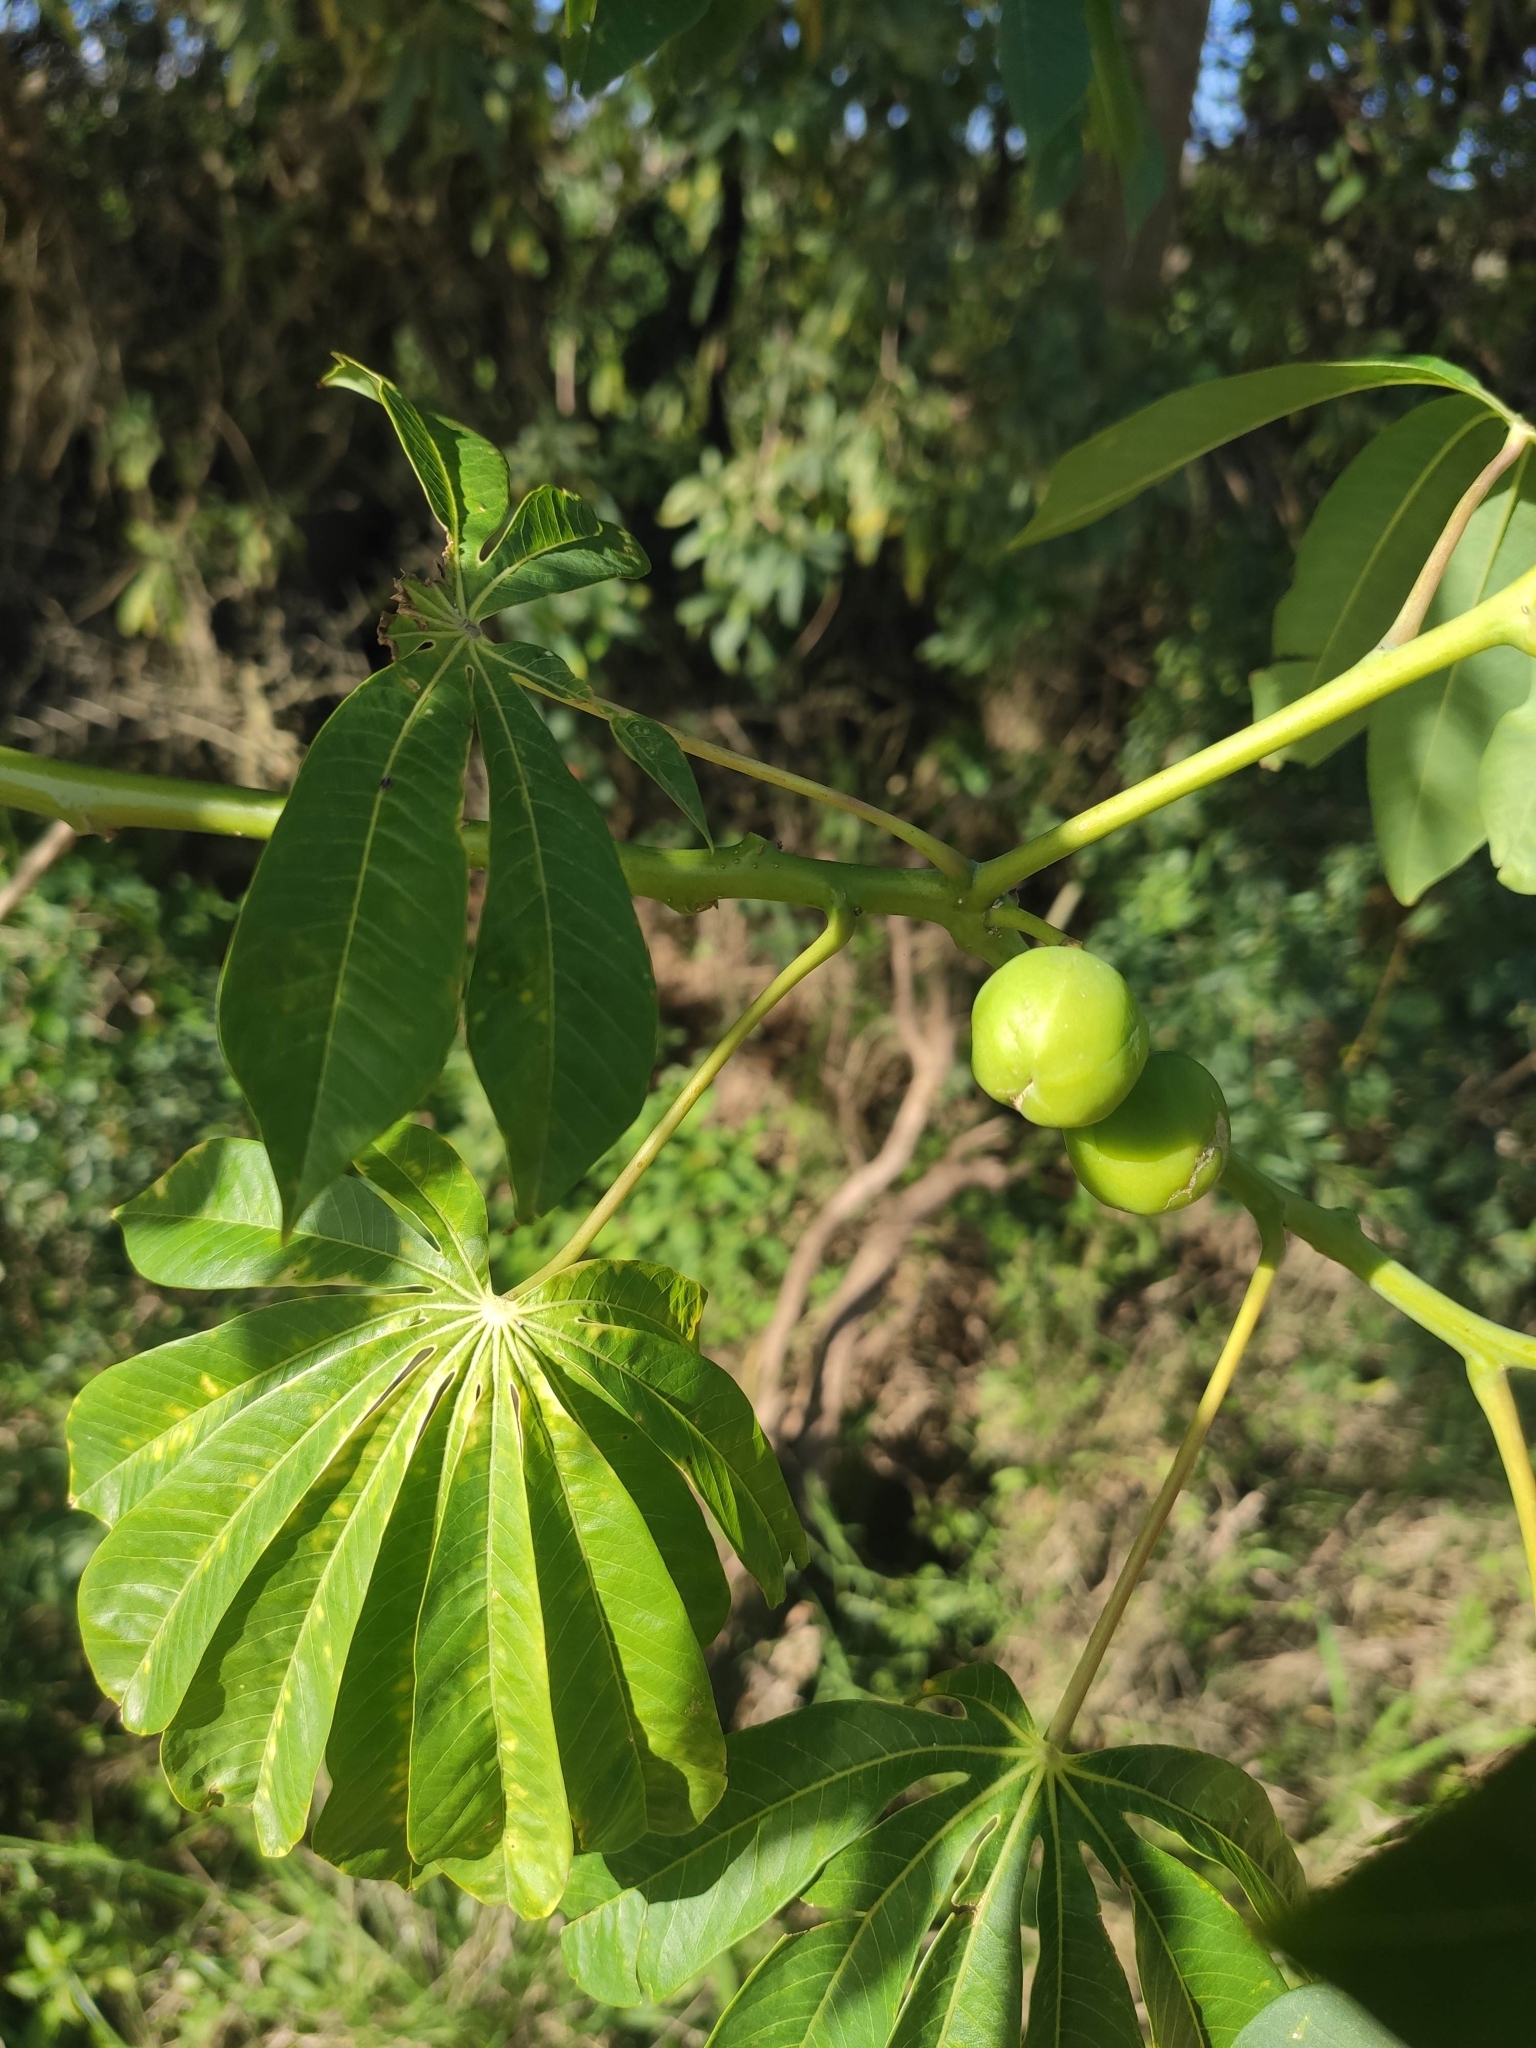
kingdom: Plantae
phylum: Tracheophyta
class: Magnoliopsida
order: Malpighiales
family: Euphorbiaceae
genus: Manihot
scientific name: Manihot grahamii
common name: Graham's manihot
